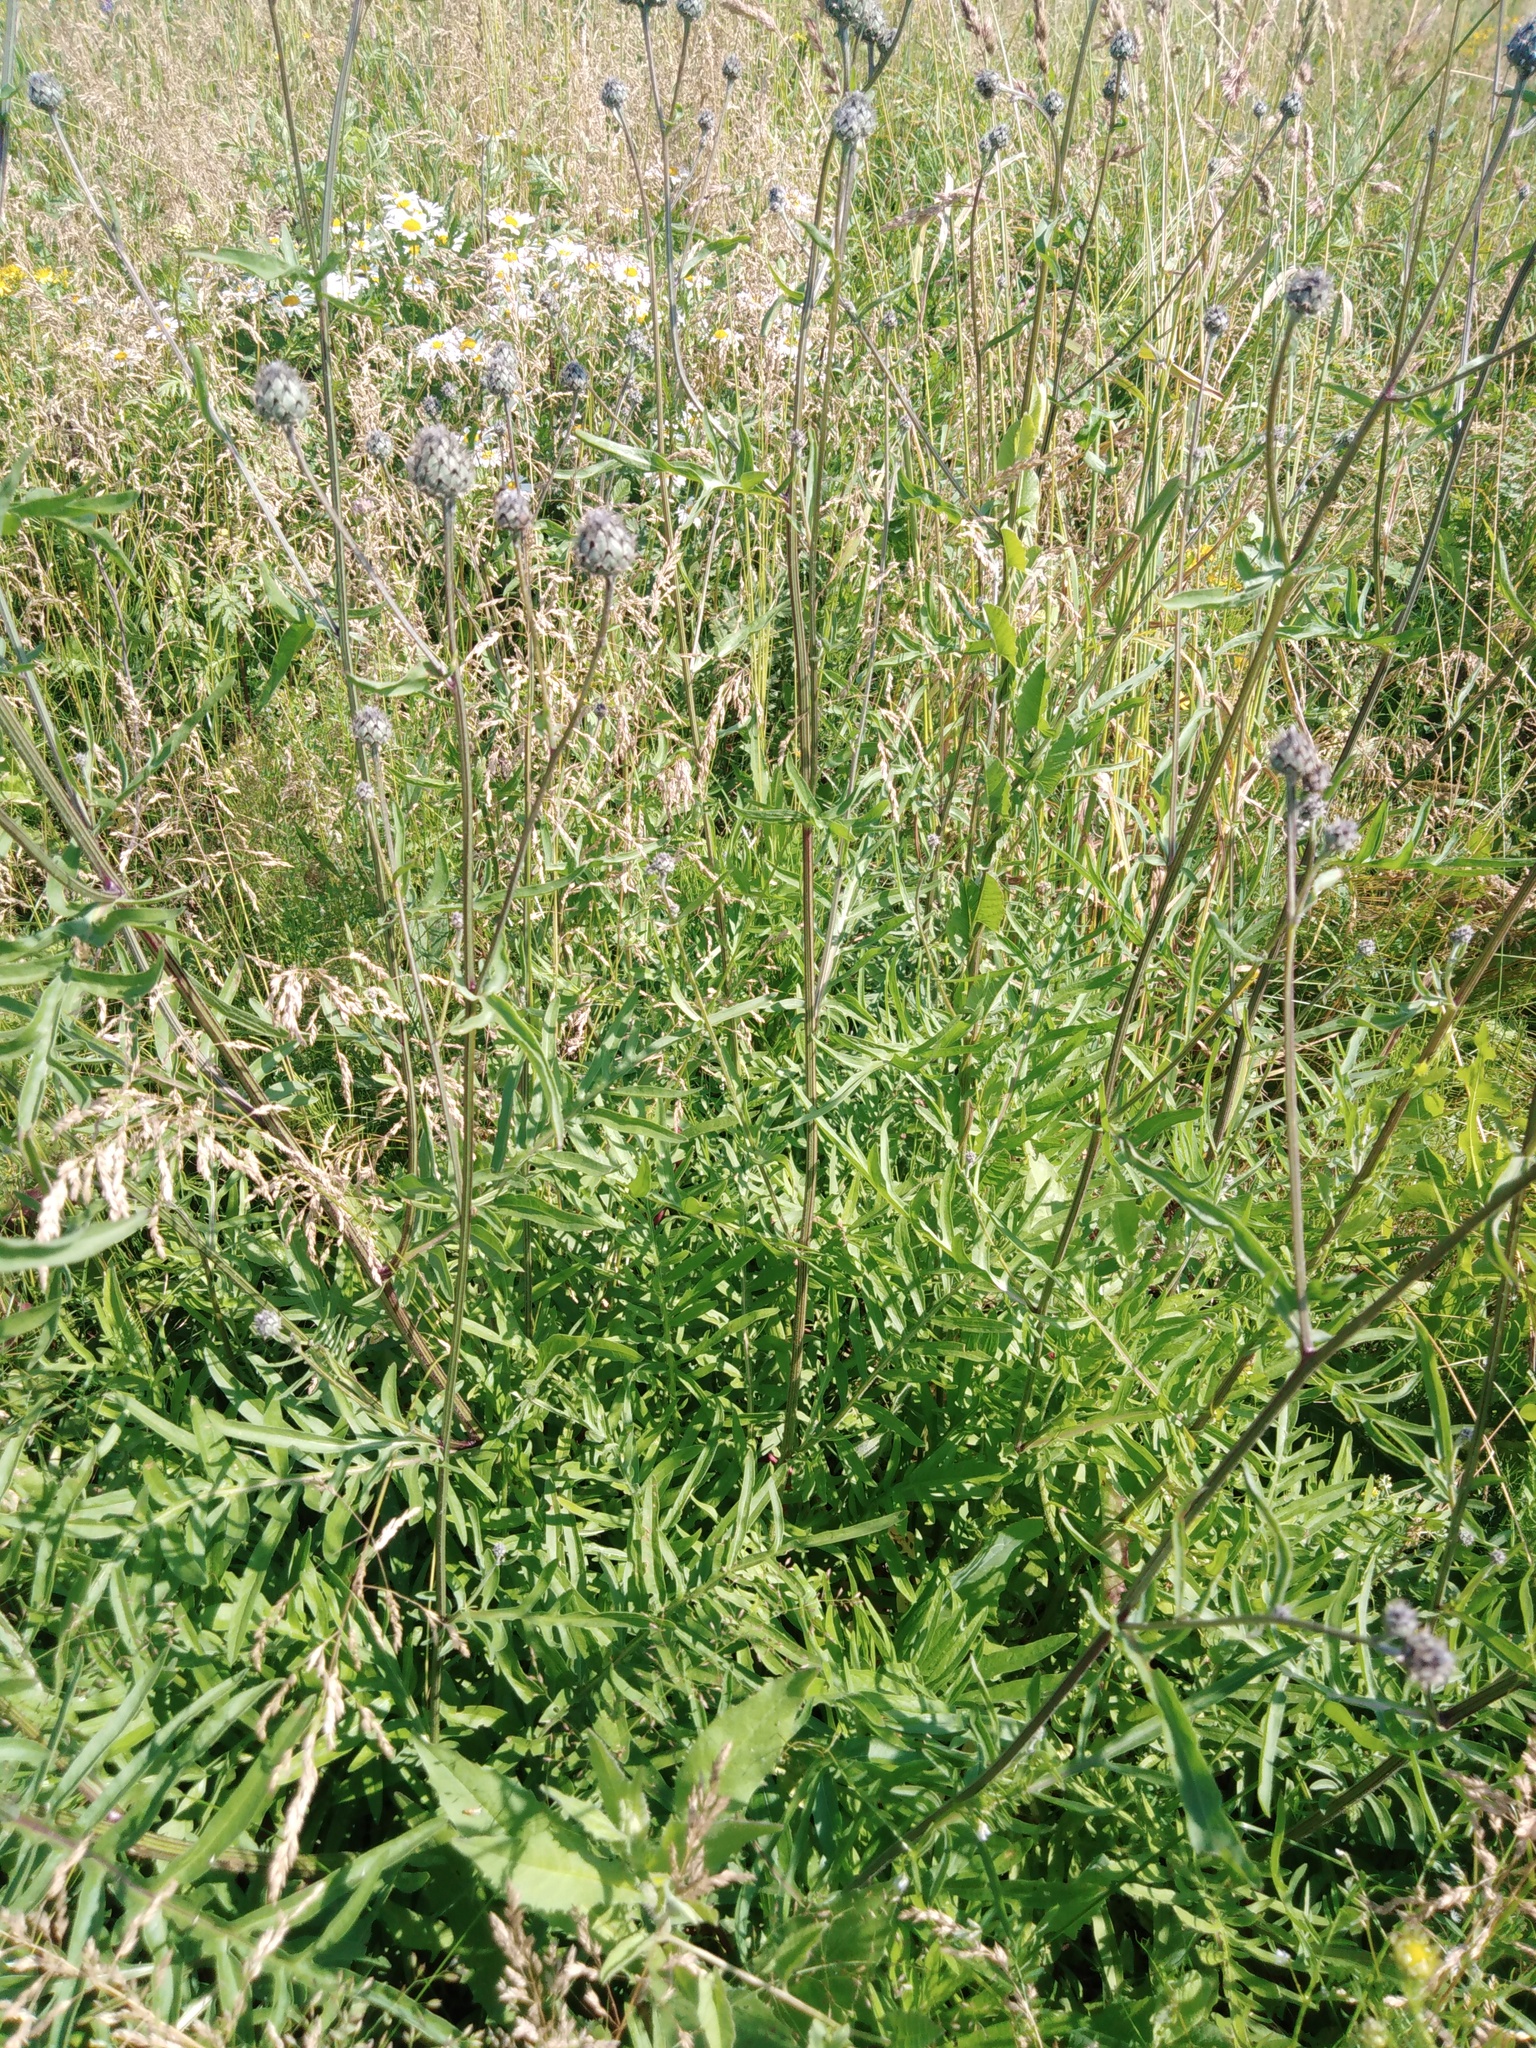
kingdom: Plantae
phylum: Tracheophyta
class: Magnoliopsida
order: Asterales
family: Asteraceae
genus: Centaurea
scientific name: Centaurea scabiosa
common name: Greater knapweed
